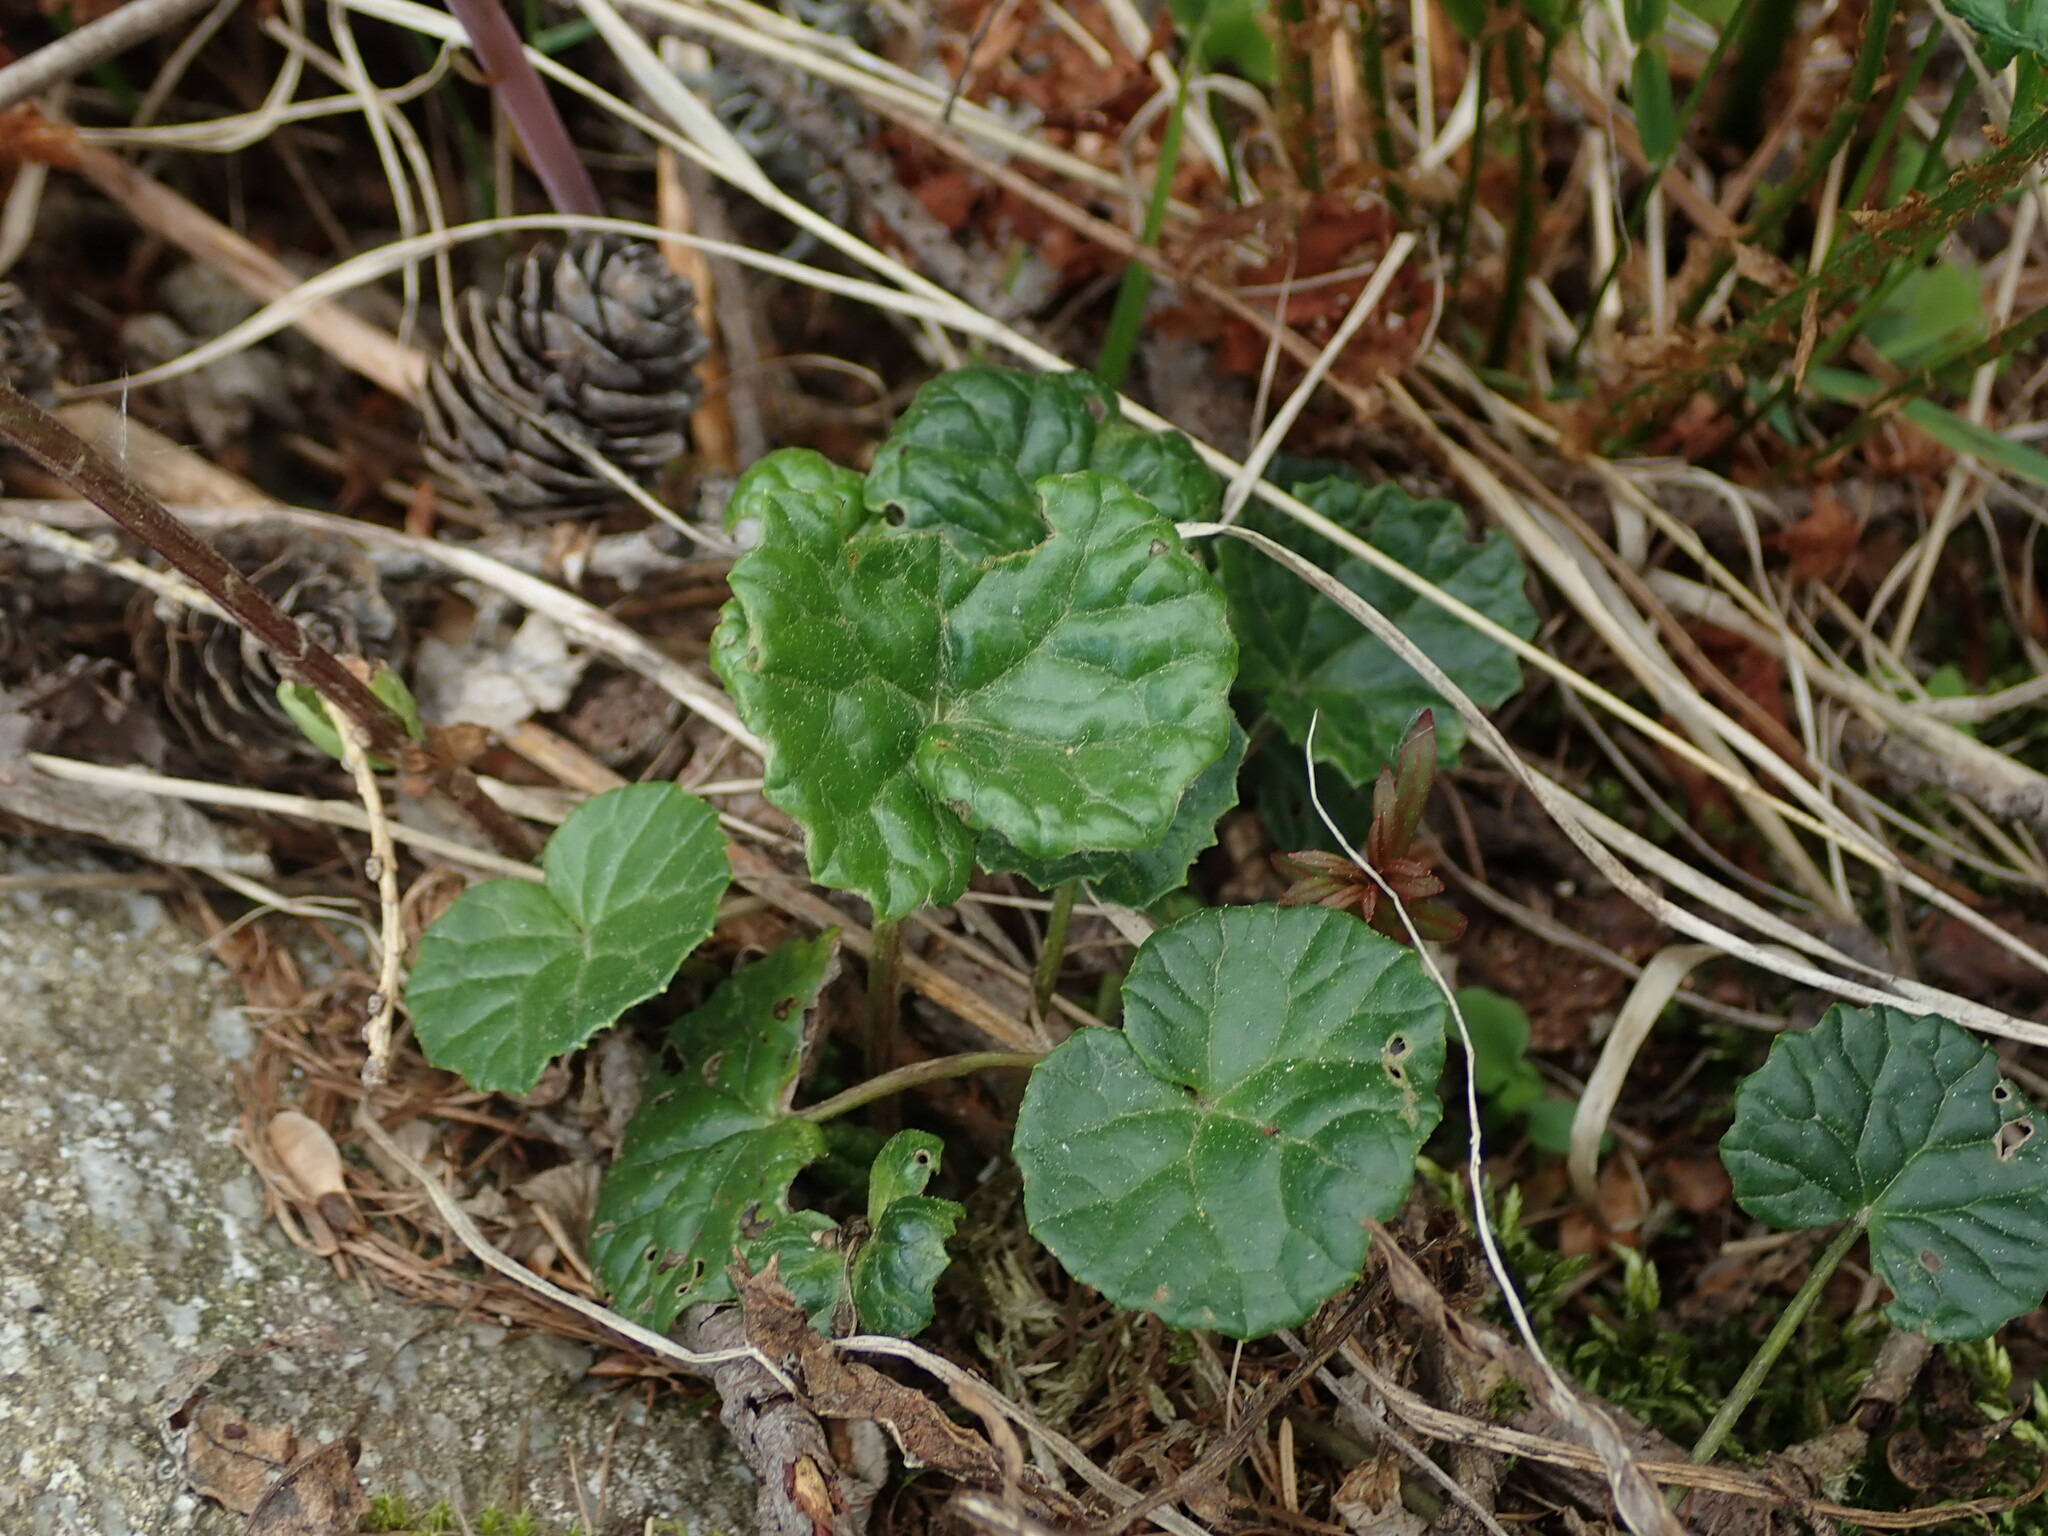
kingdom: Plantae
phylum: Tracheophyta
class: Magnoliopsida
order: Asterales
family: Asteraceae
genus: Homogyne
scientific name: Homogyne alpina
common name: Purple colt's-foot
